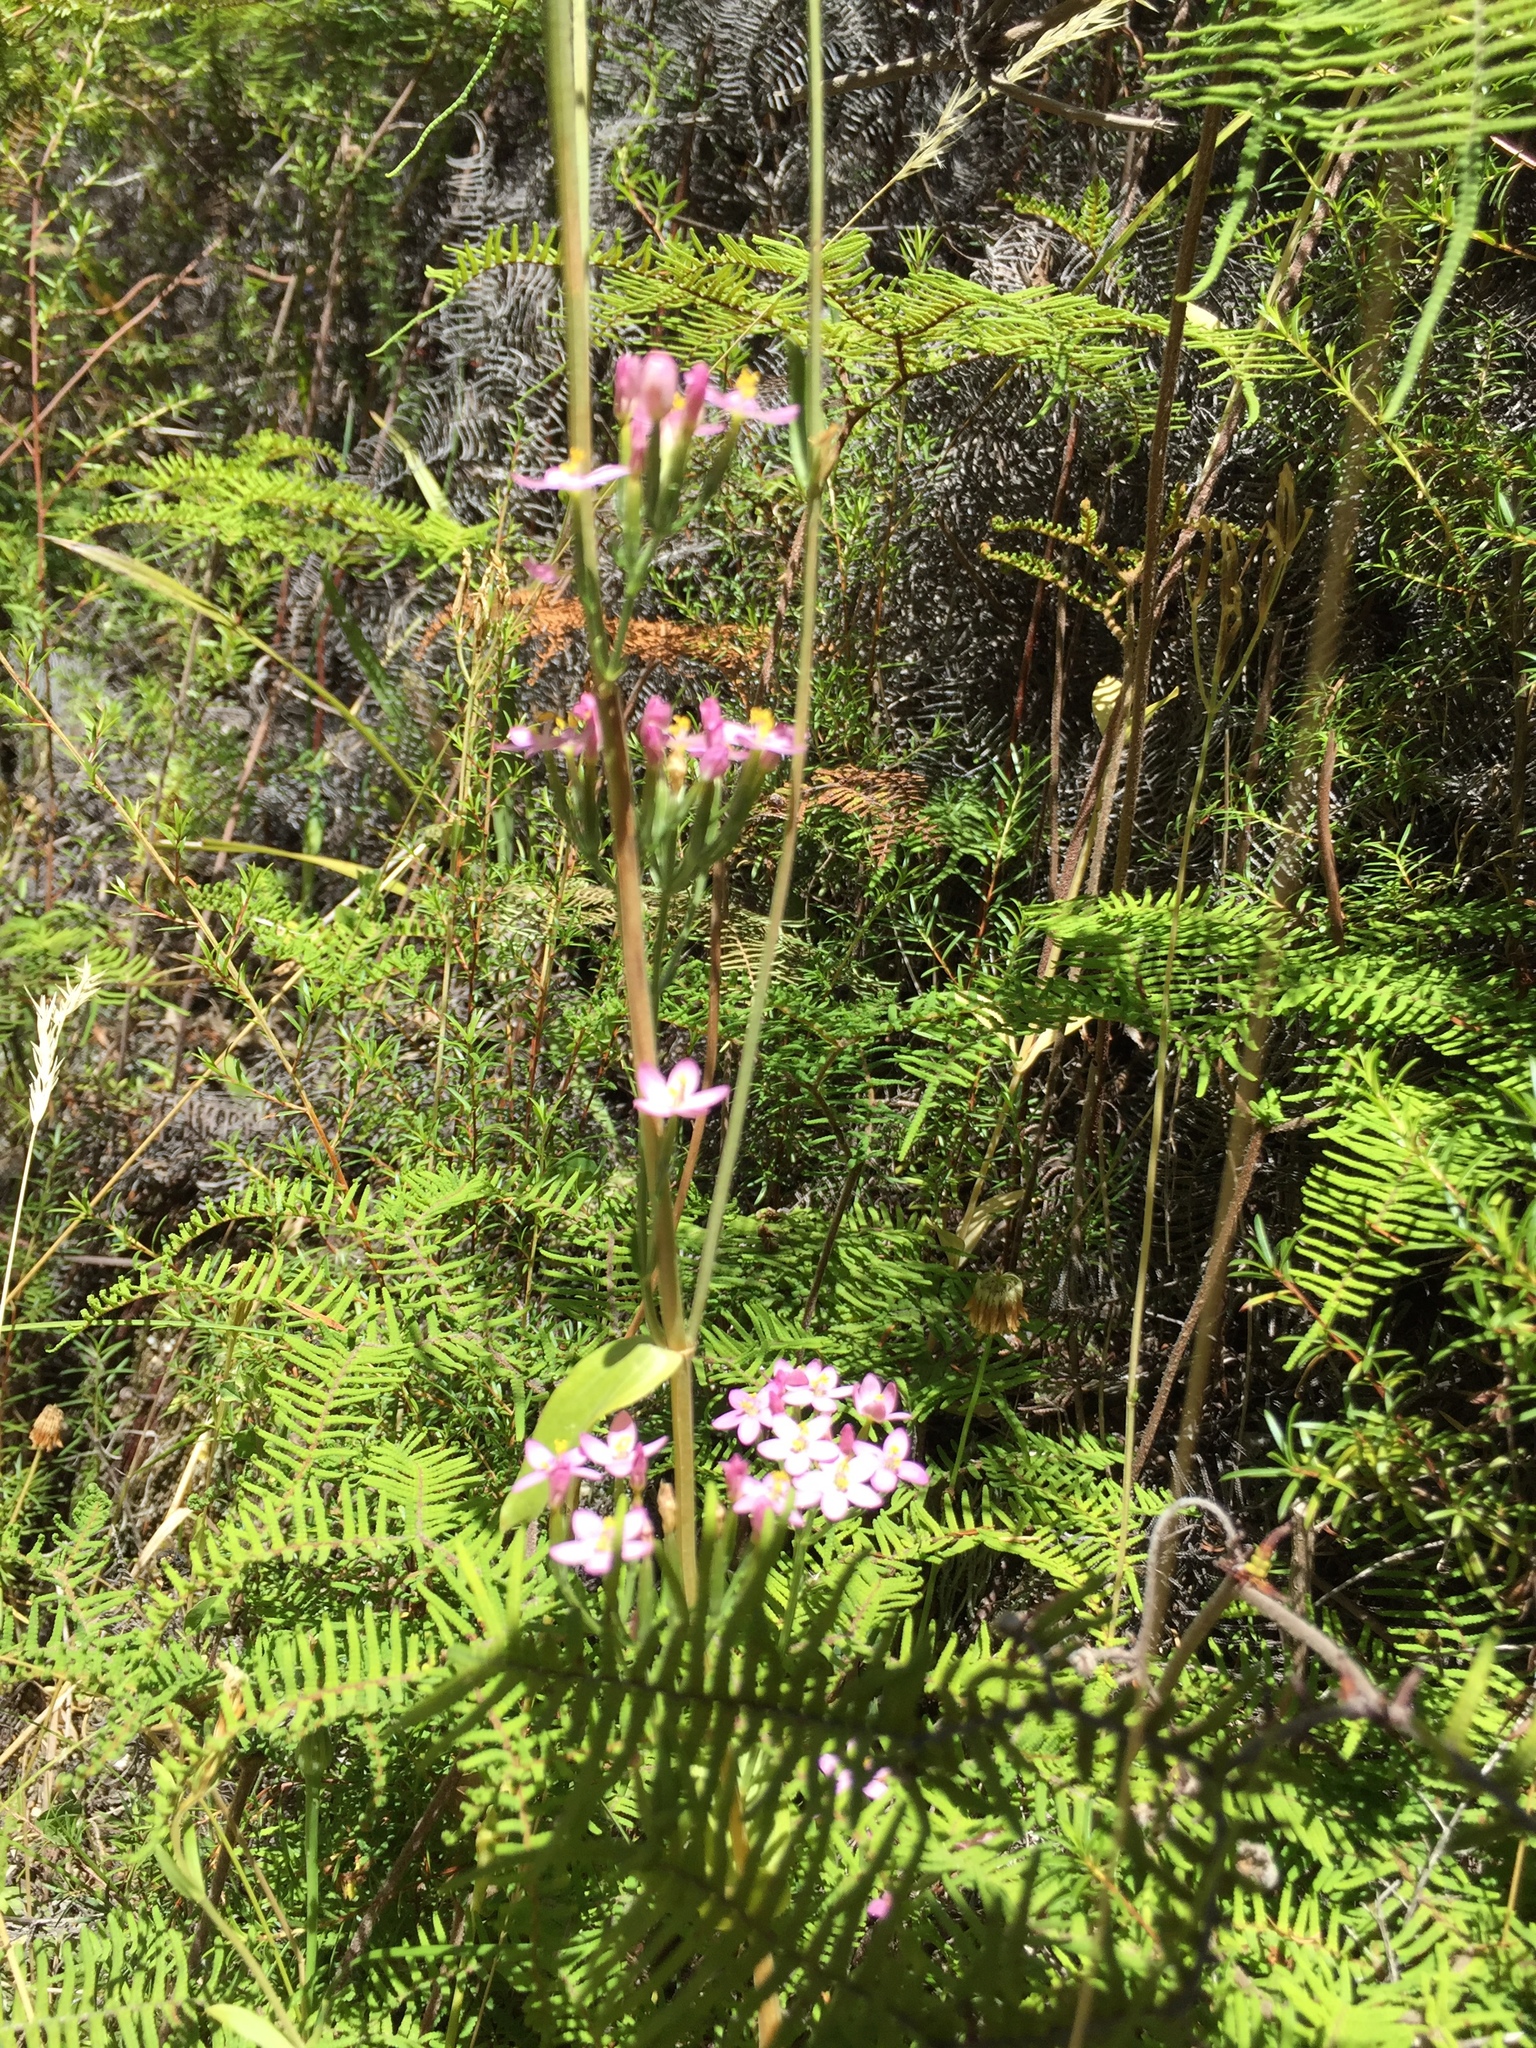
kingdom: Plantae
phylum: Tracheophyta
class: Magnoliopsida
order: Gentianales
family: Gentianaceae
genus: Centaurium
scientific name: Centaurium erythraea
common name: Common centaury
